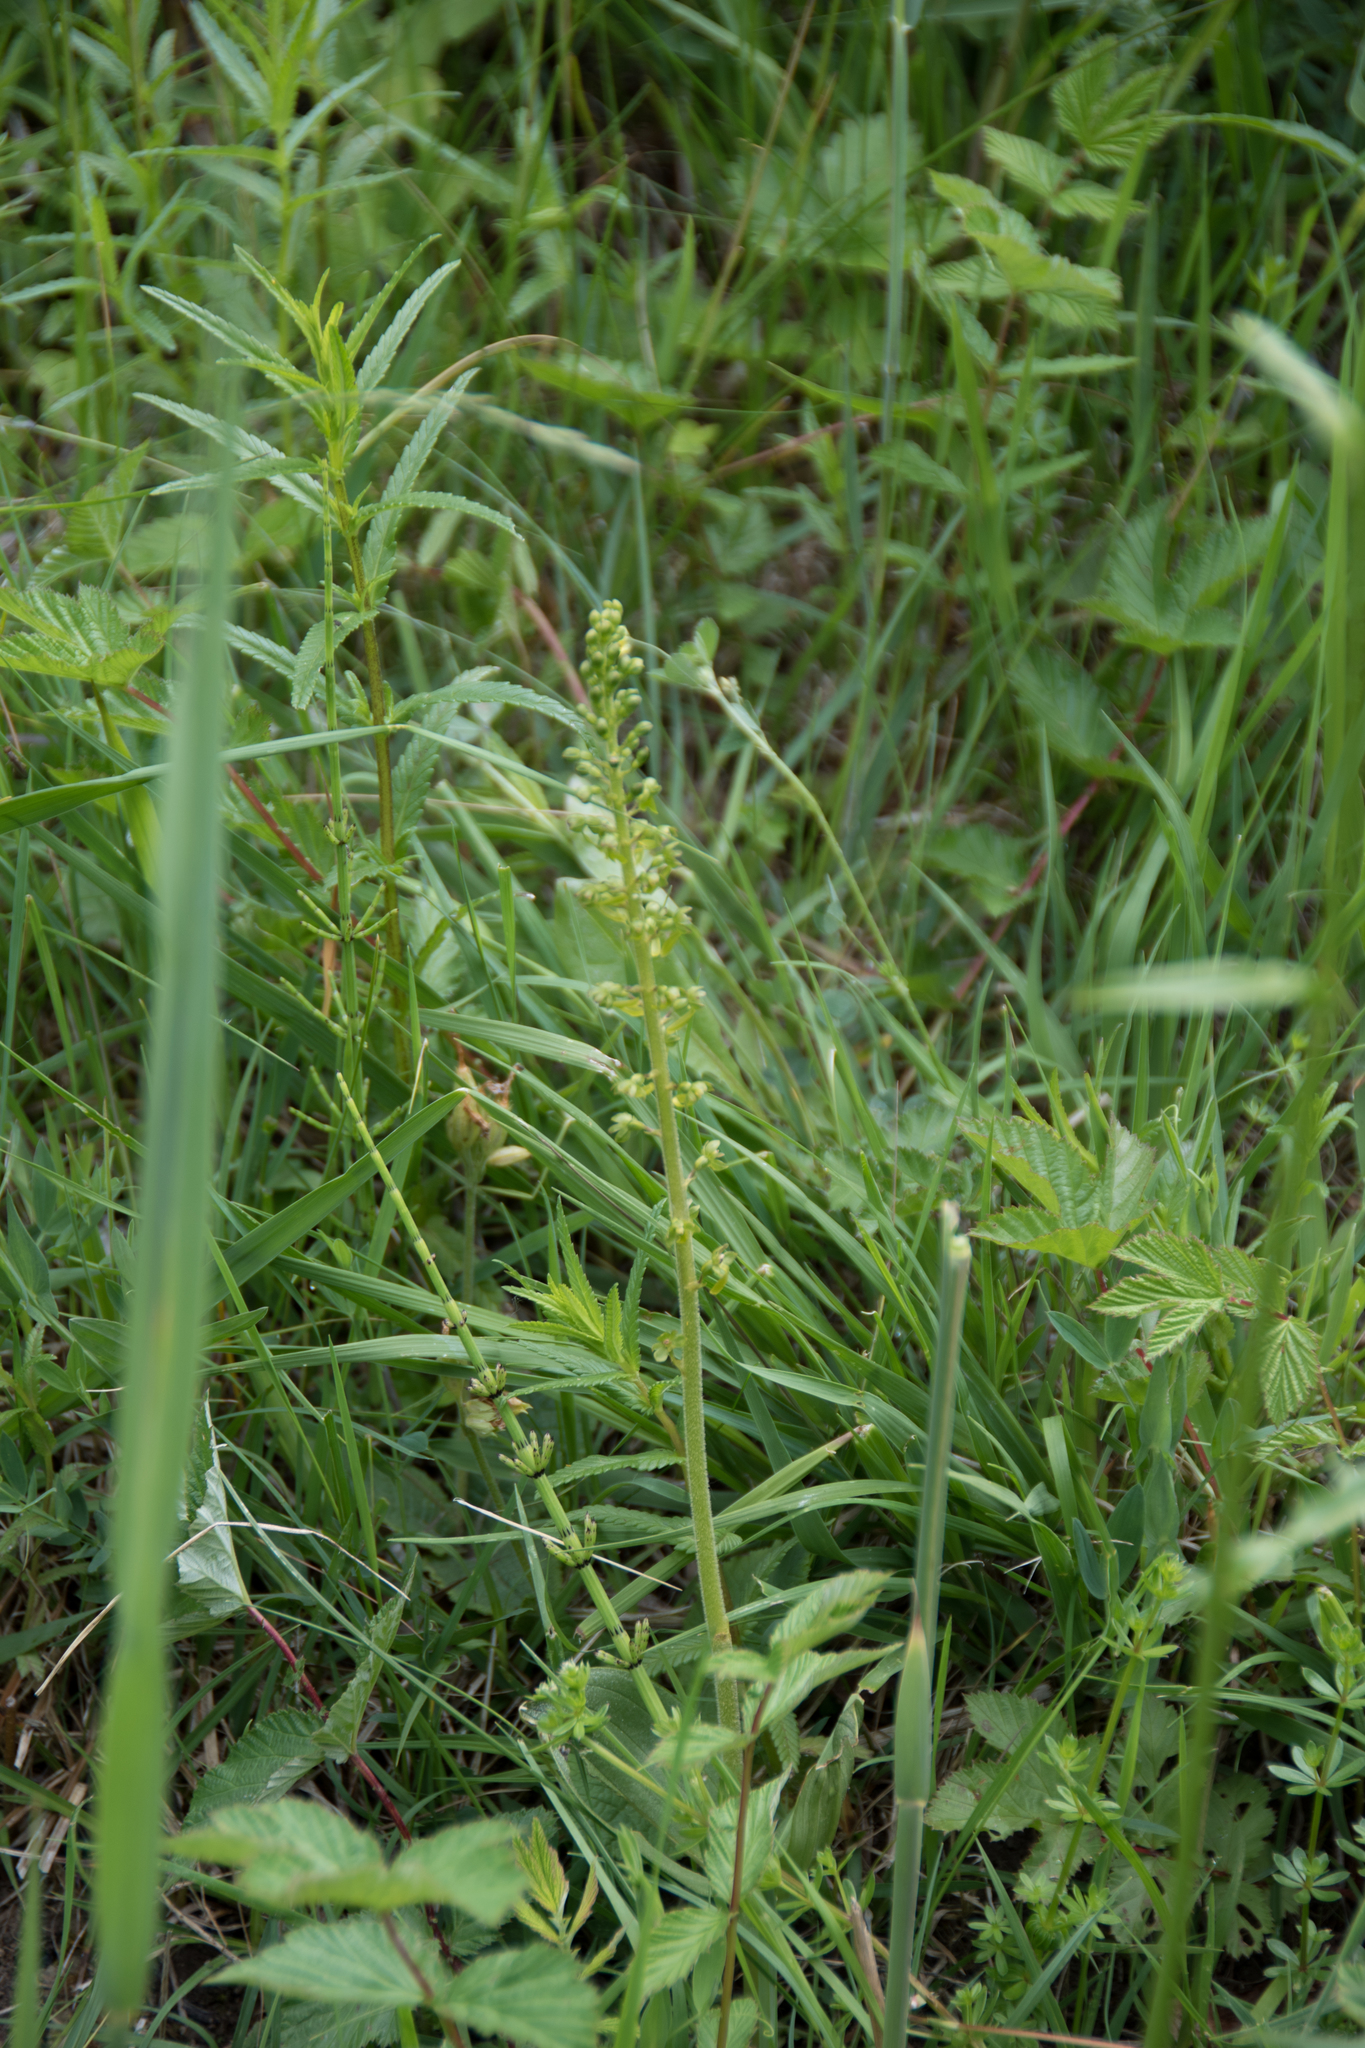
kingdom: Plantae
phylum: Tracheophyta
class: Liliopsida
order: Asparagales
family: Orchidaceae
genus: Neottia
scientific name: Neottia ovata
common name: Common twayblade
